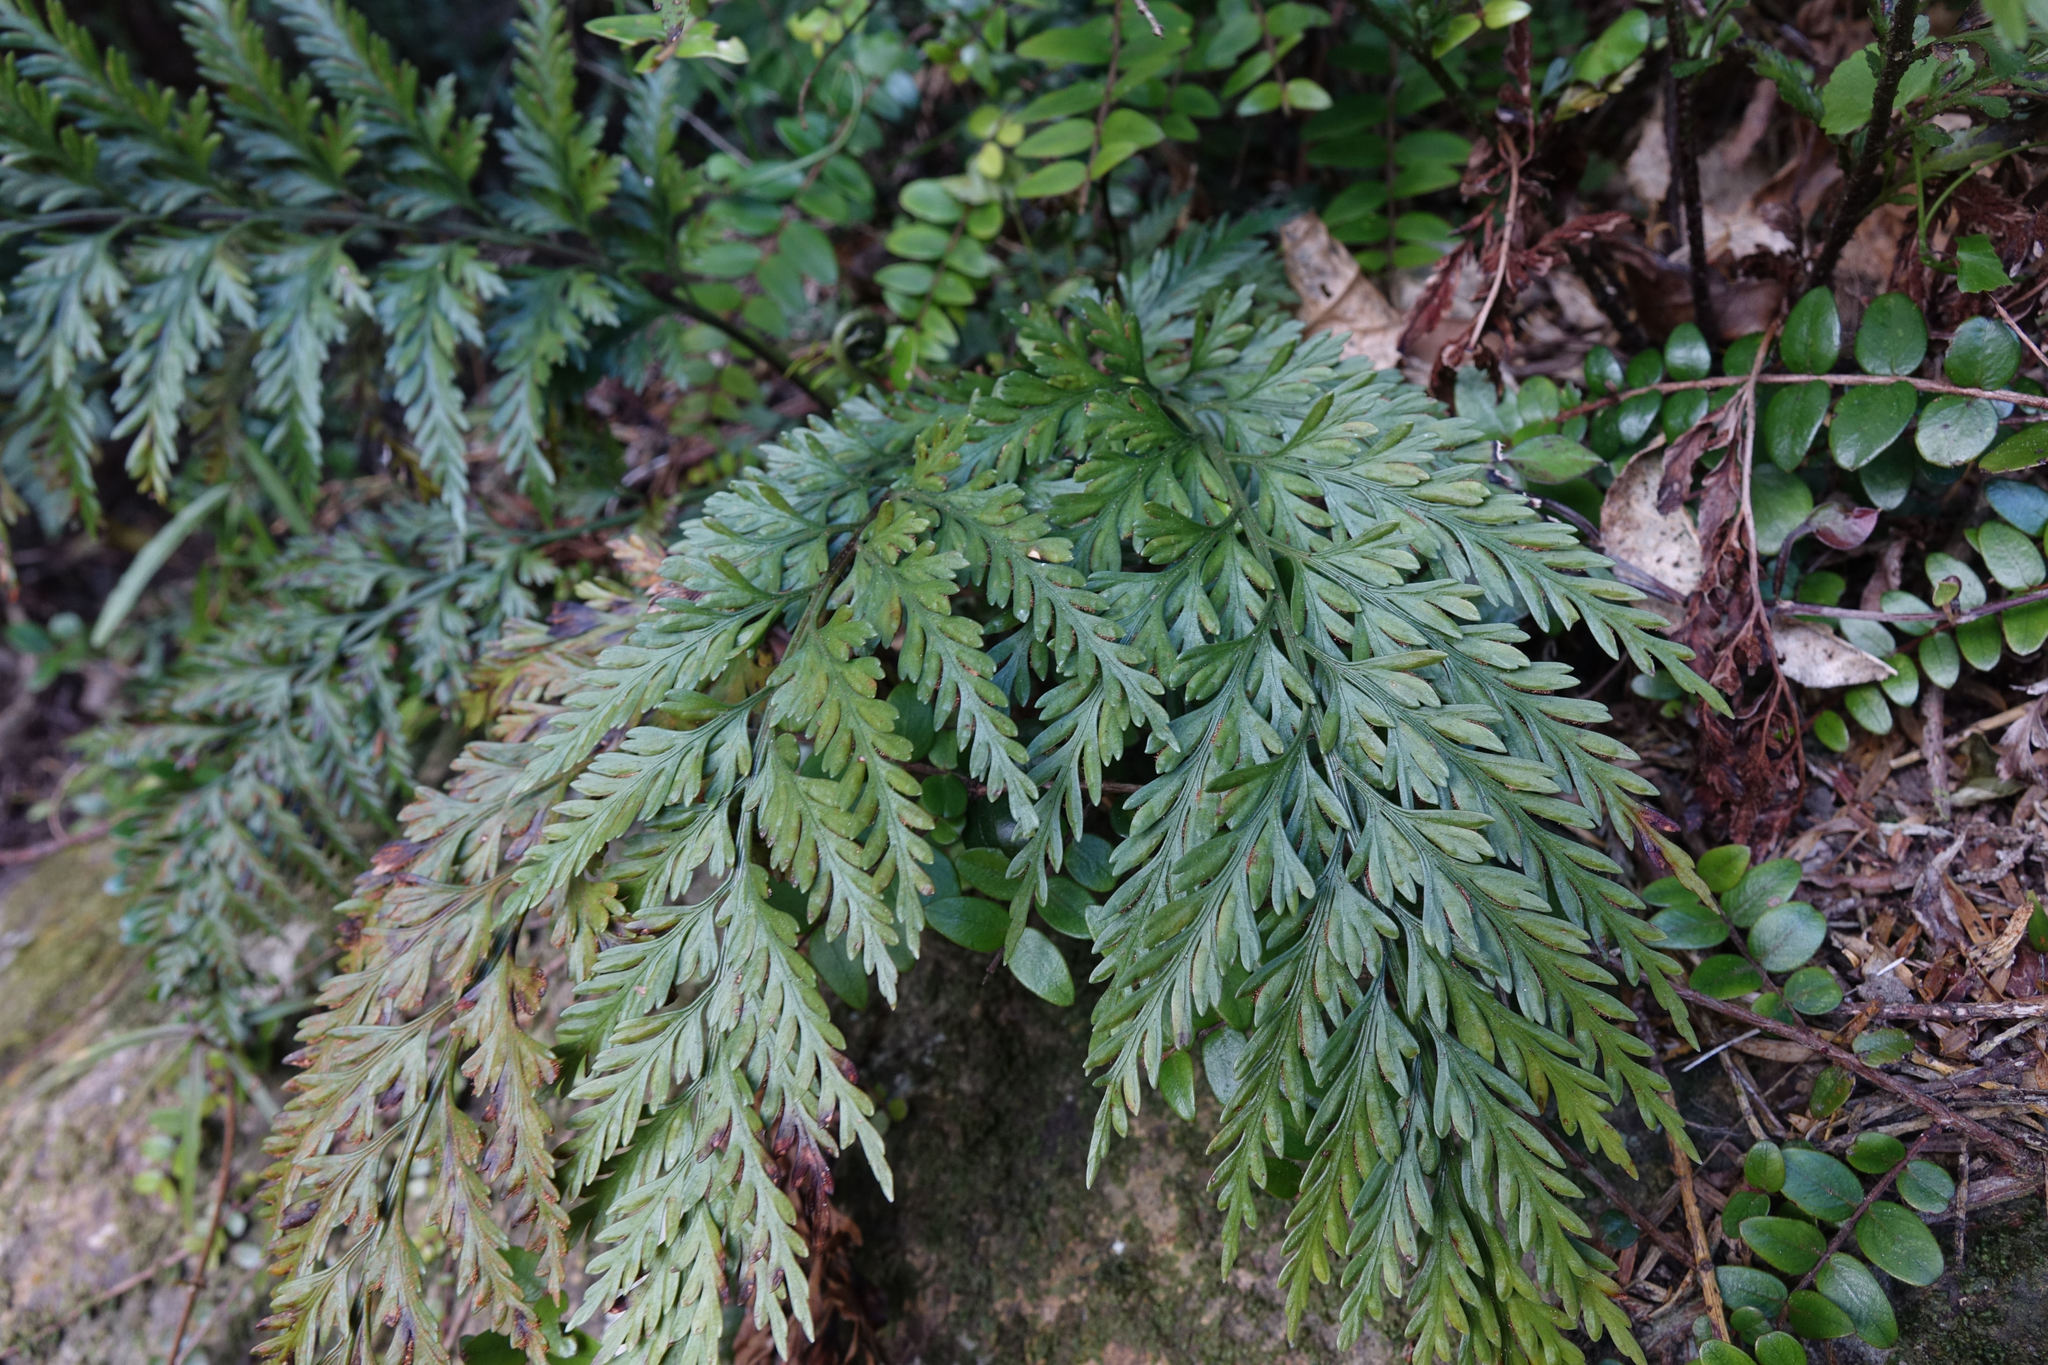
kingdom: Plantae
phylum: Tracheophyta
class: Polypodiopsida
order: Polypodiales
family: Aspleniaceae
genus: Asplenium
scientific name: Asplenium appendiculatum
